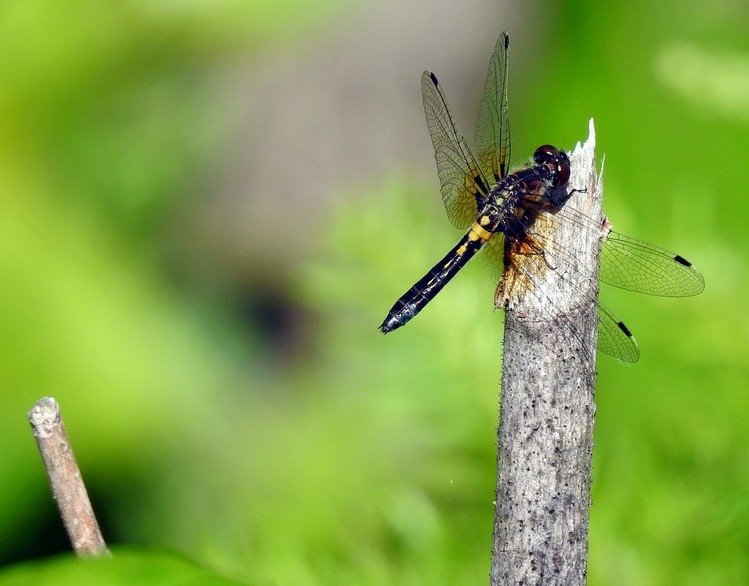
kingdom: Animalia
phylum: Arthropoda
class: Insecta
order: Odonata
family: Libellulidae
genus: Leucorrhinia
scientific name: Leucorrhinia frigida
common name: Frosted whiteface
